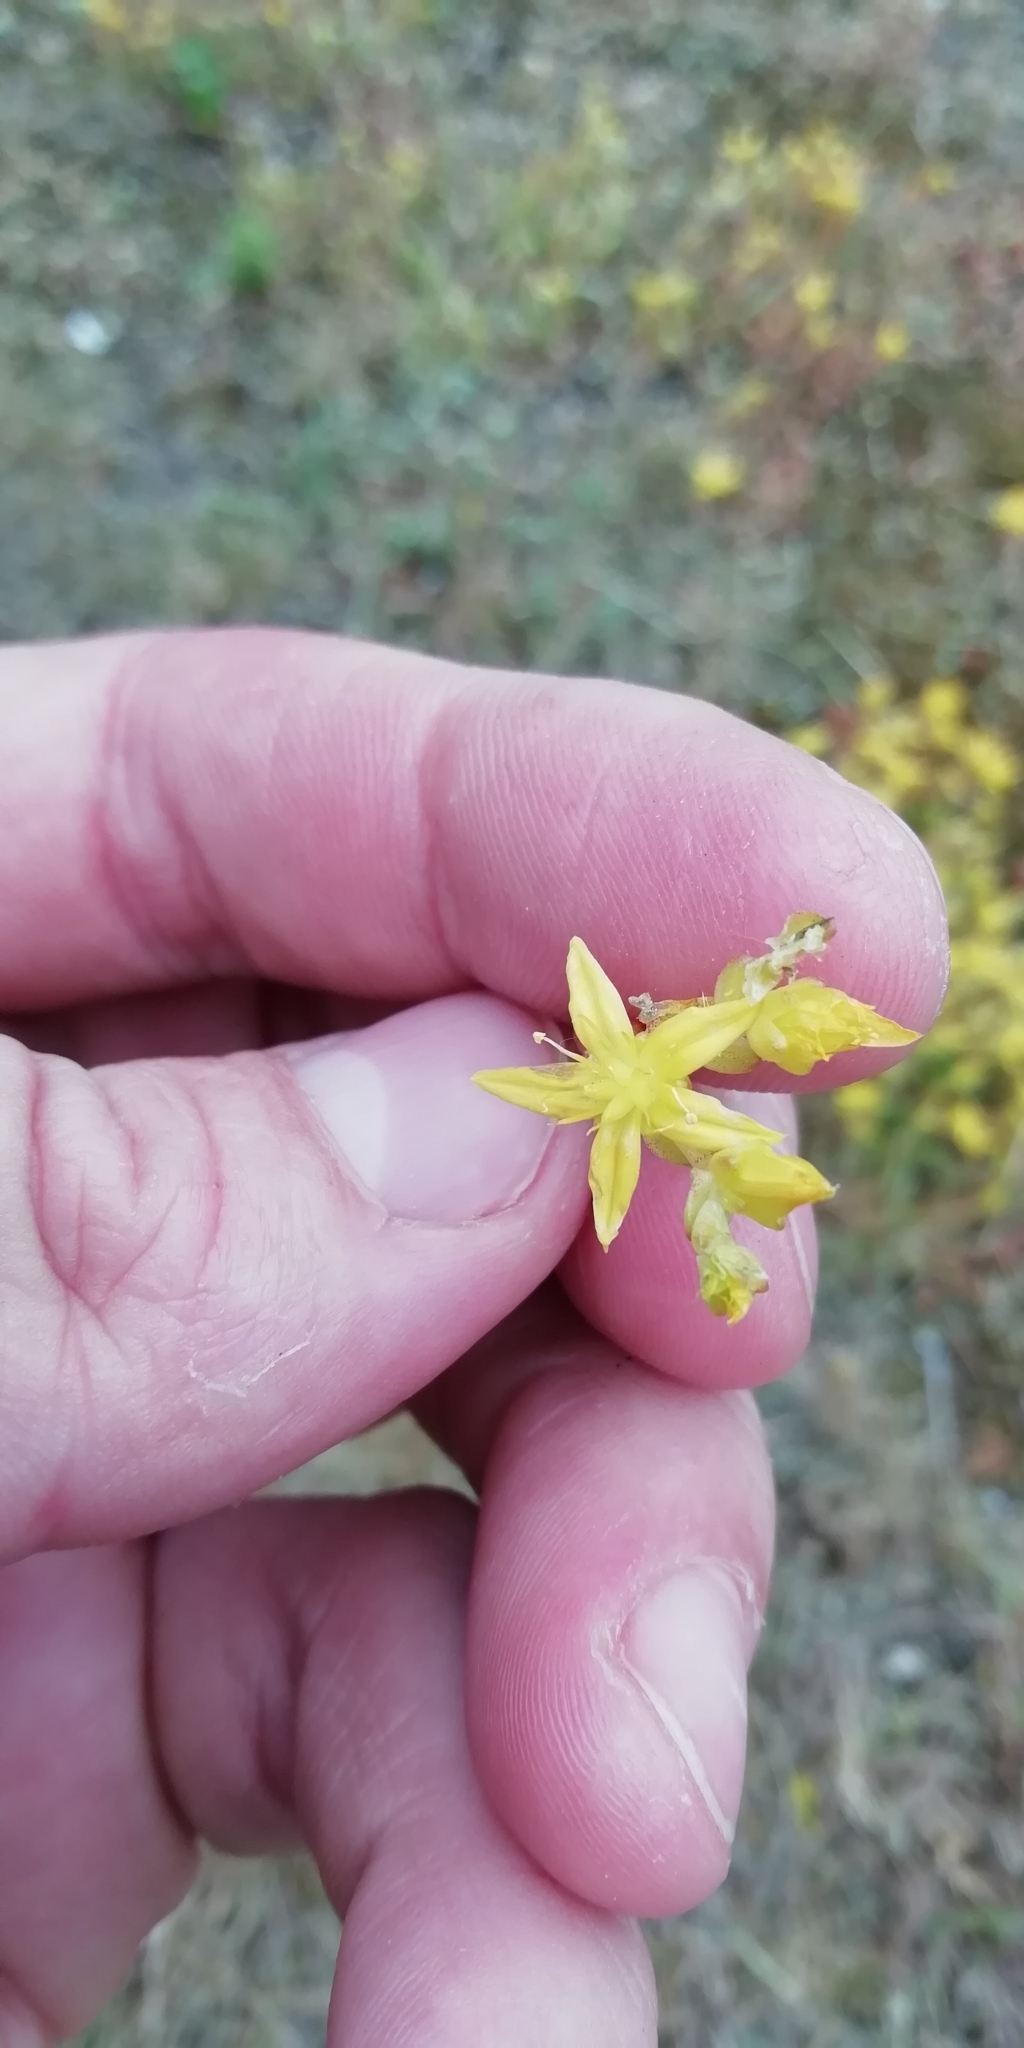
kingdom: Plantae
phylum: Tracheophyta
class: Magnoliopsida
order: Saxifragales
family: Crassulaceae
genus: Sedum
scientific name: Sedum acre
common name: Biting stonecrop
